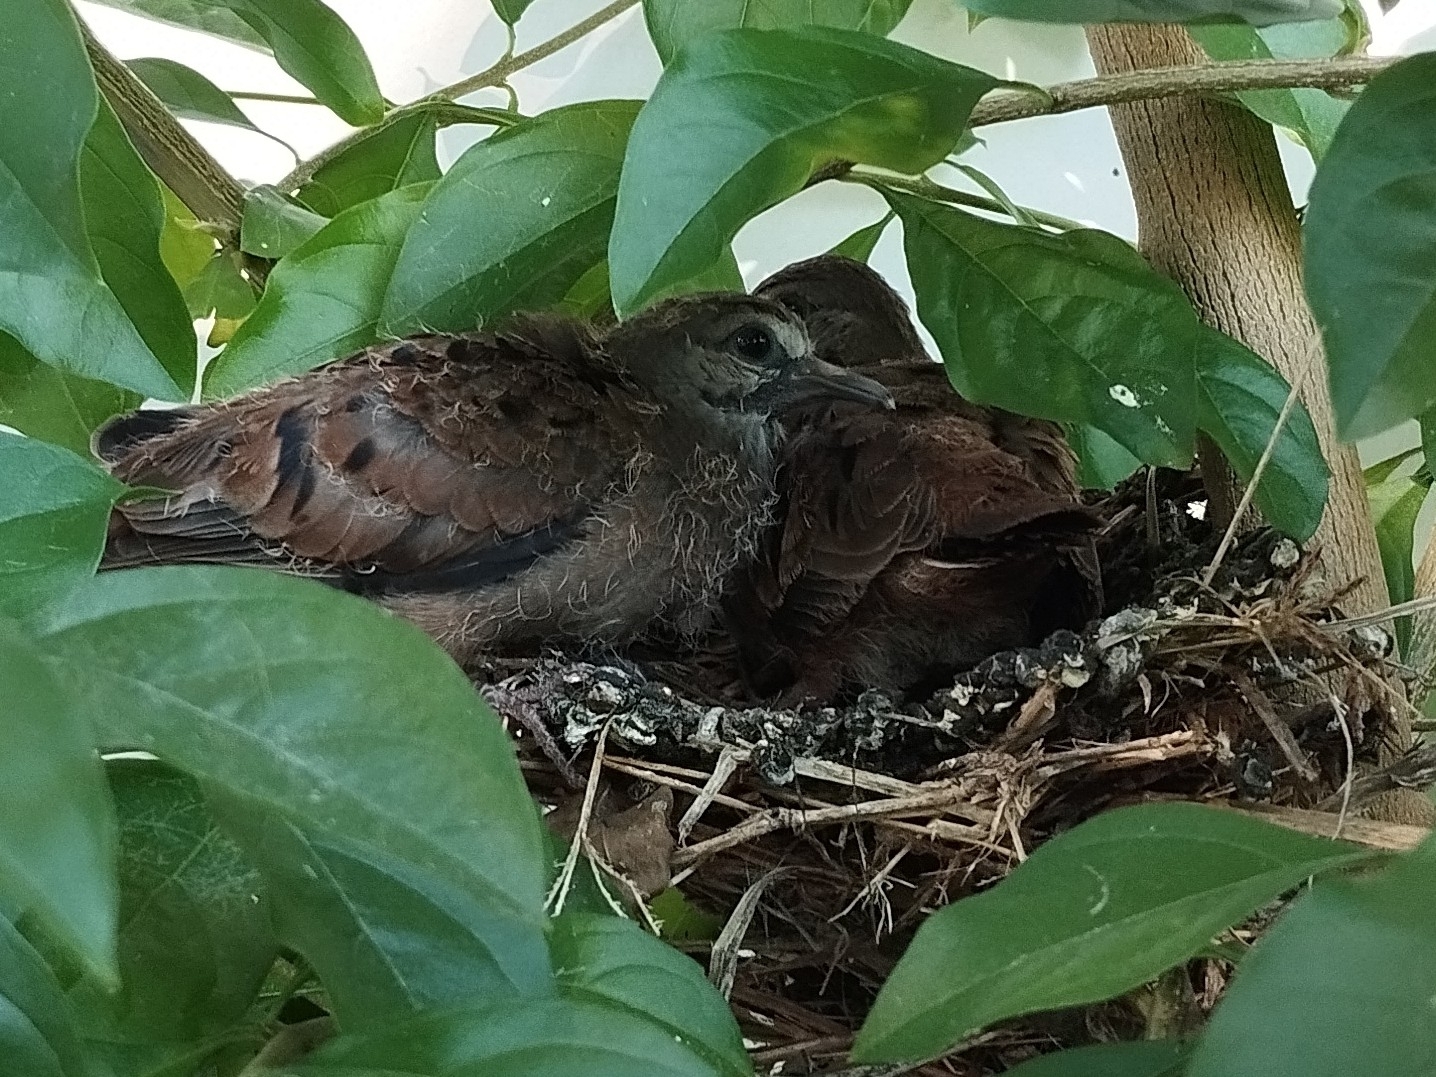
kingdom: Animalia
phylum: Chordata
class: Aves
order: Columbiformes
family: Columbidae
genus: Columbina
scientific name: Columbina talpacoti
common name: Ruddy ground dove
